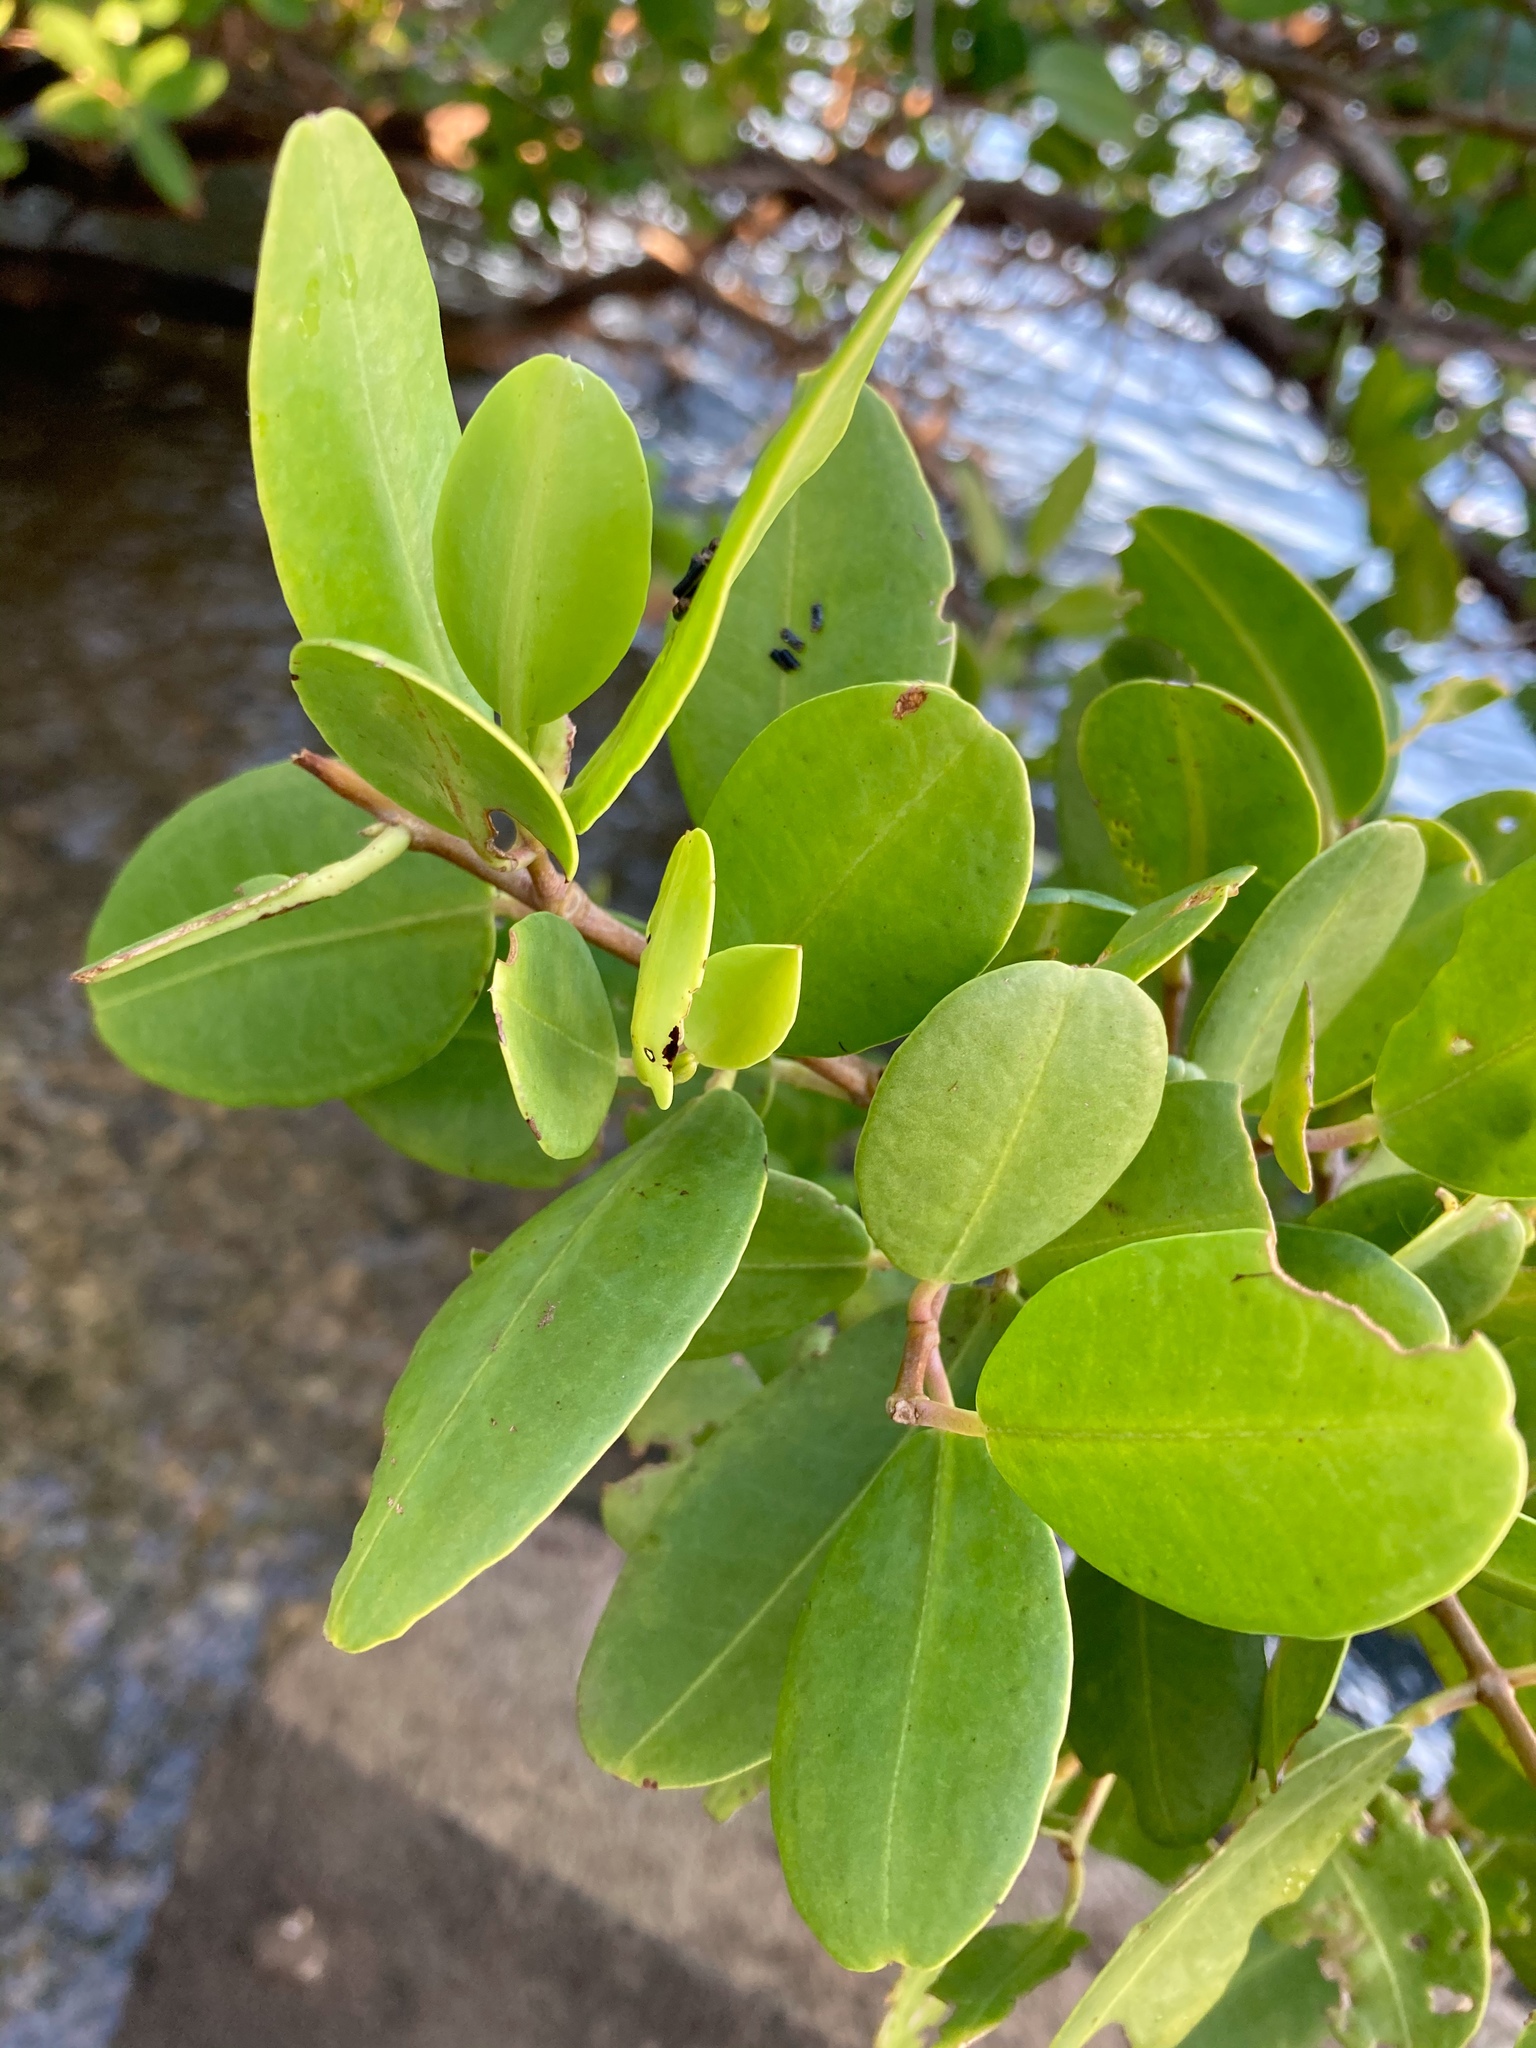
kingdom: Plantae
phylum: Tracheophyta
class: Magnoliopsida
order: Myrtales
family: Combretaceae
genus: Laguncularia
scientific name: Laguncularia racemosa
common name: White mangrove
